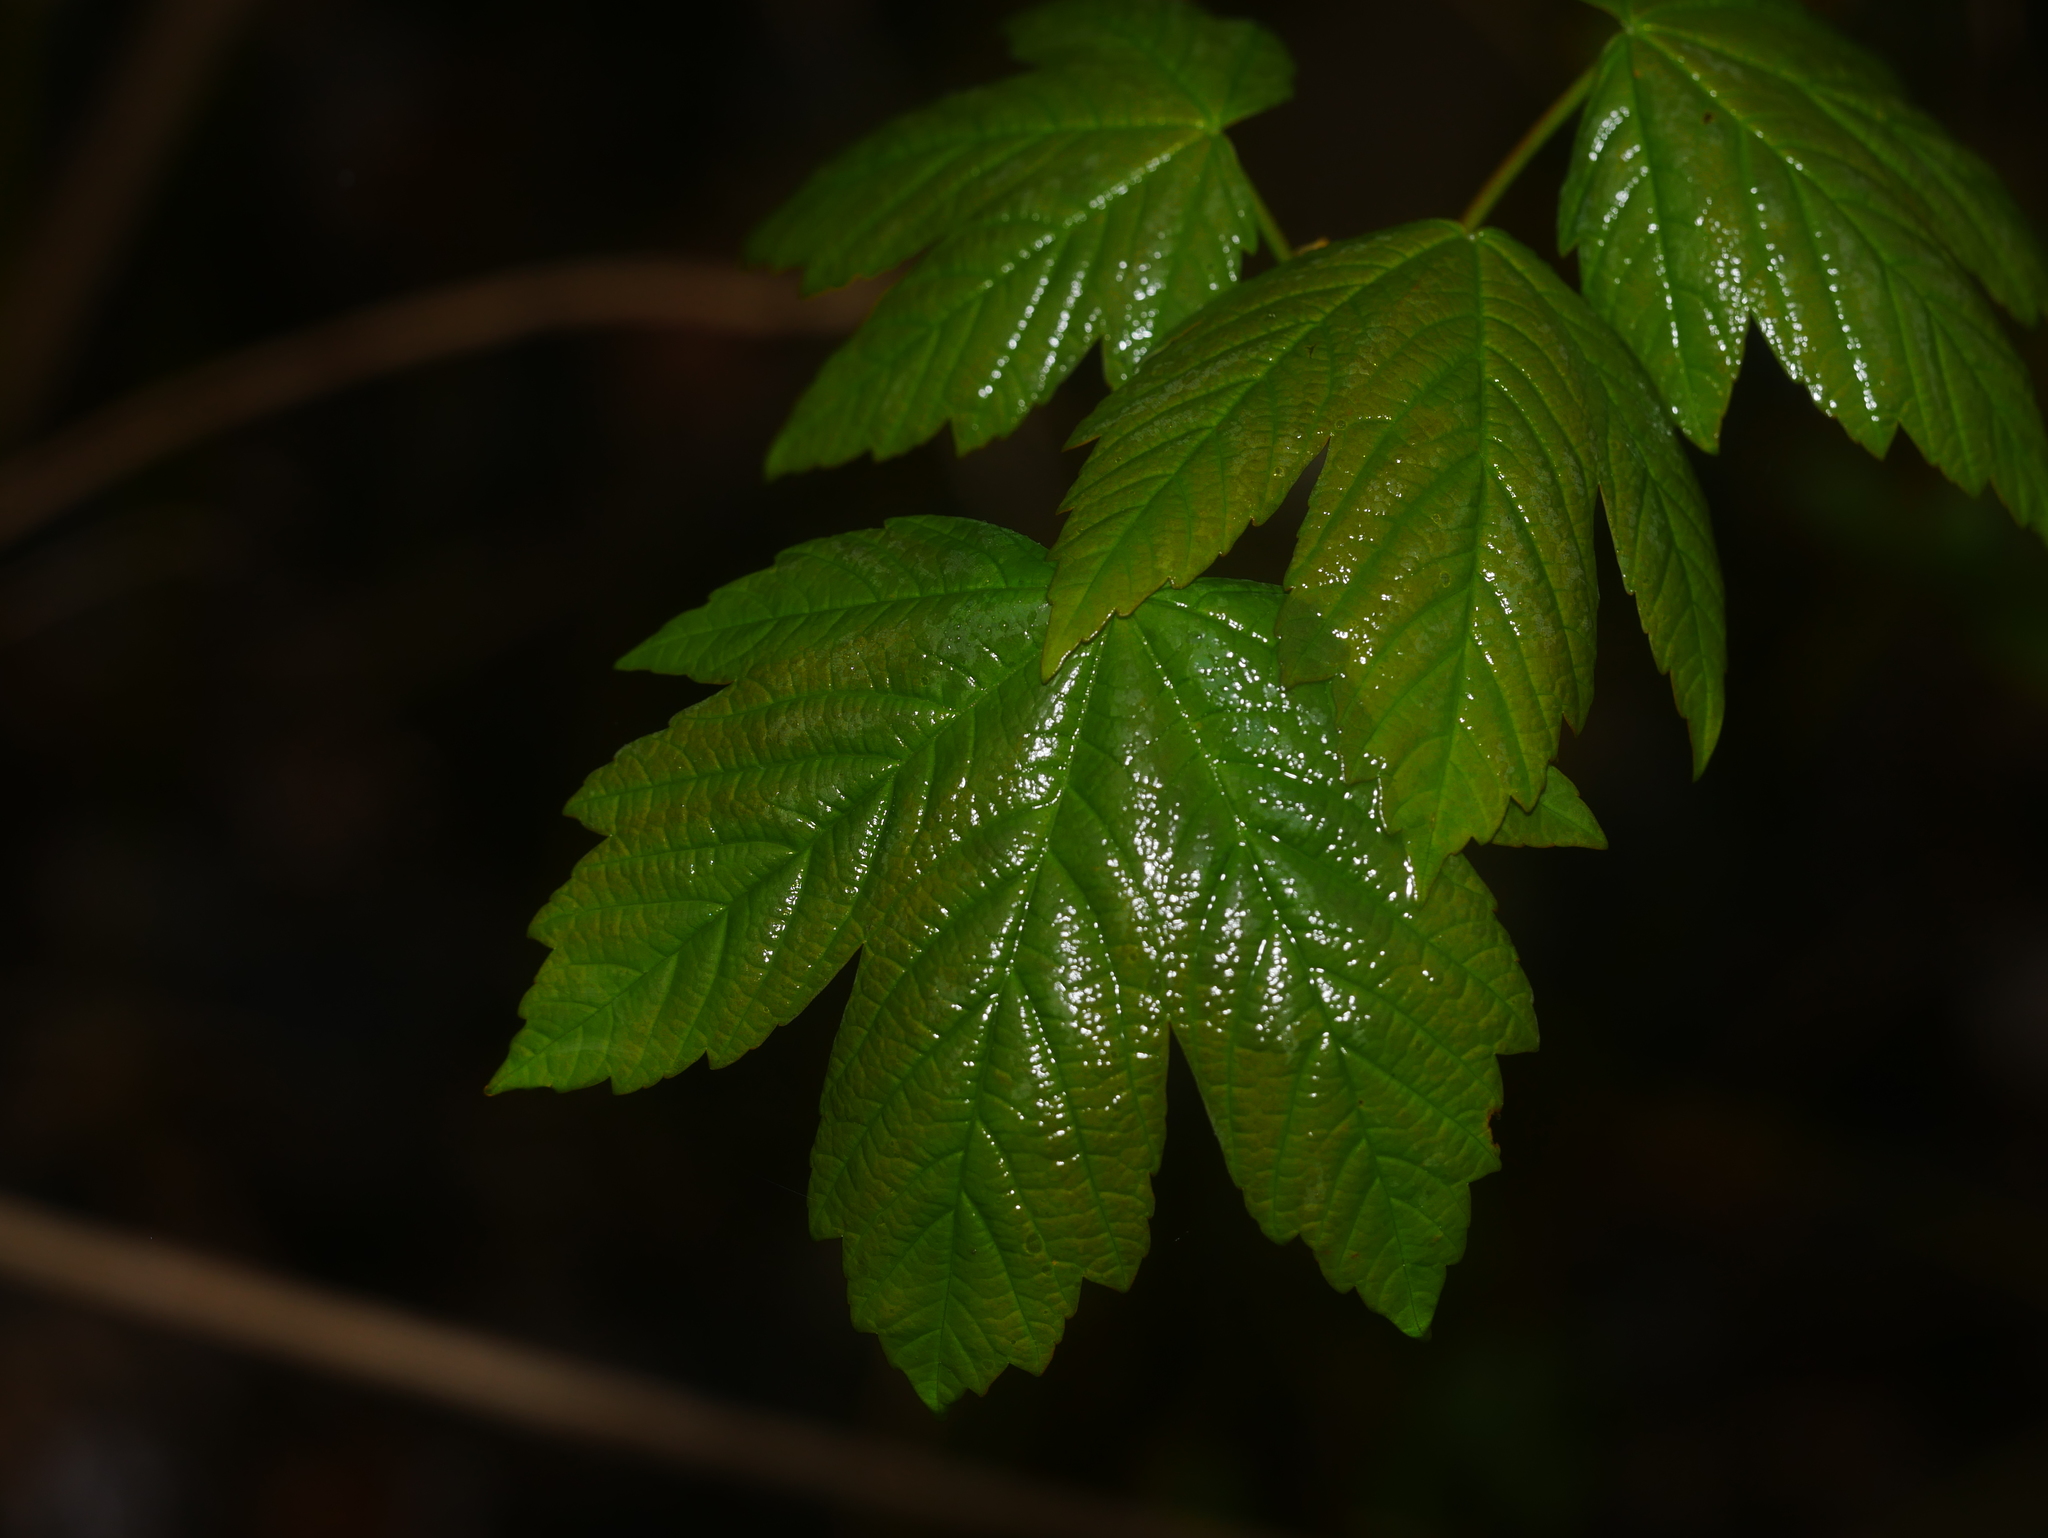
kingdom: Plantae
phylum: Tracheophyta
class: Magnoliopsida
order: Sapindales
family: Sapindaceae
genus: Acer
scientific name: Acer pseudoplatanus
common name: Sycamore
